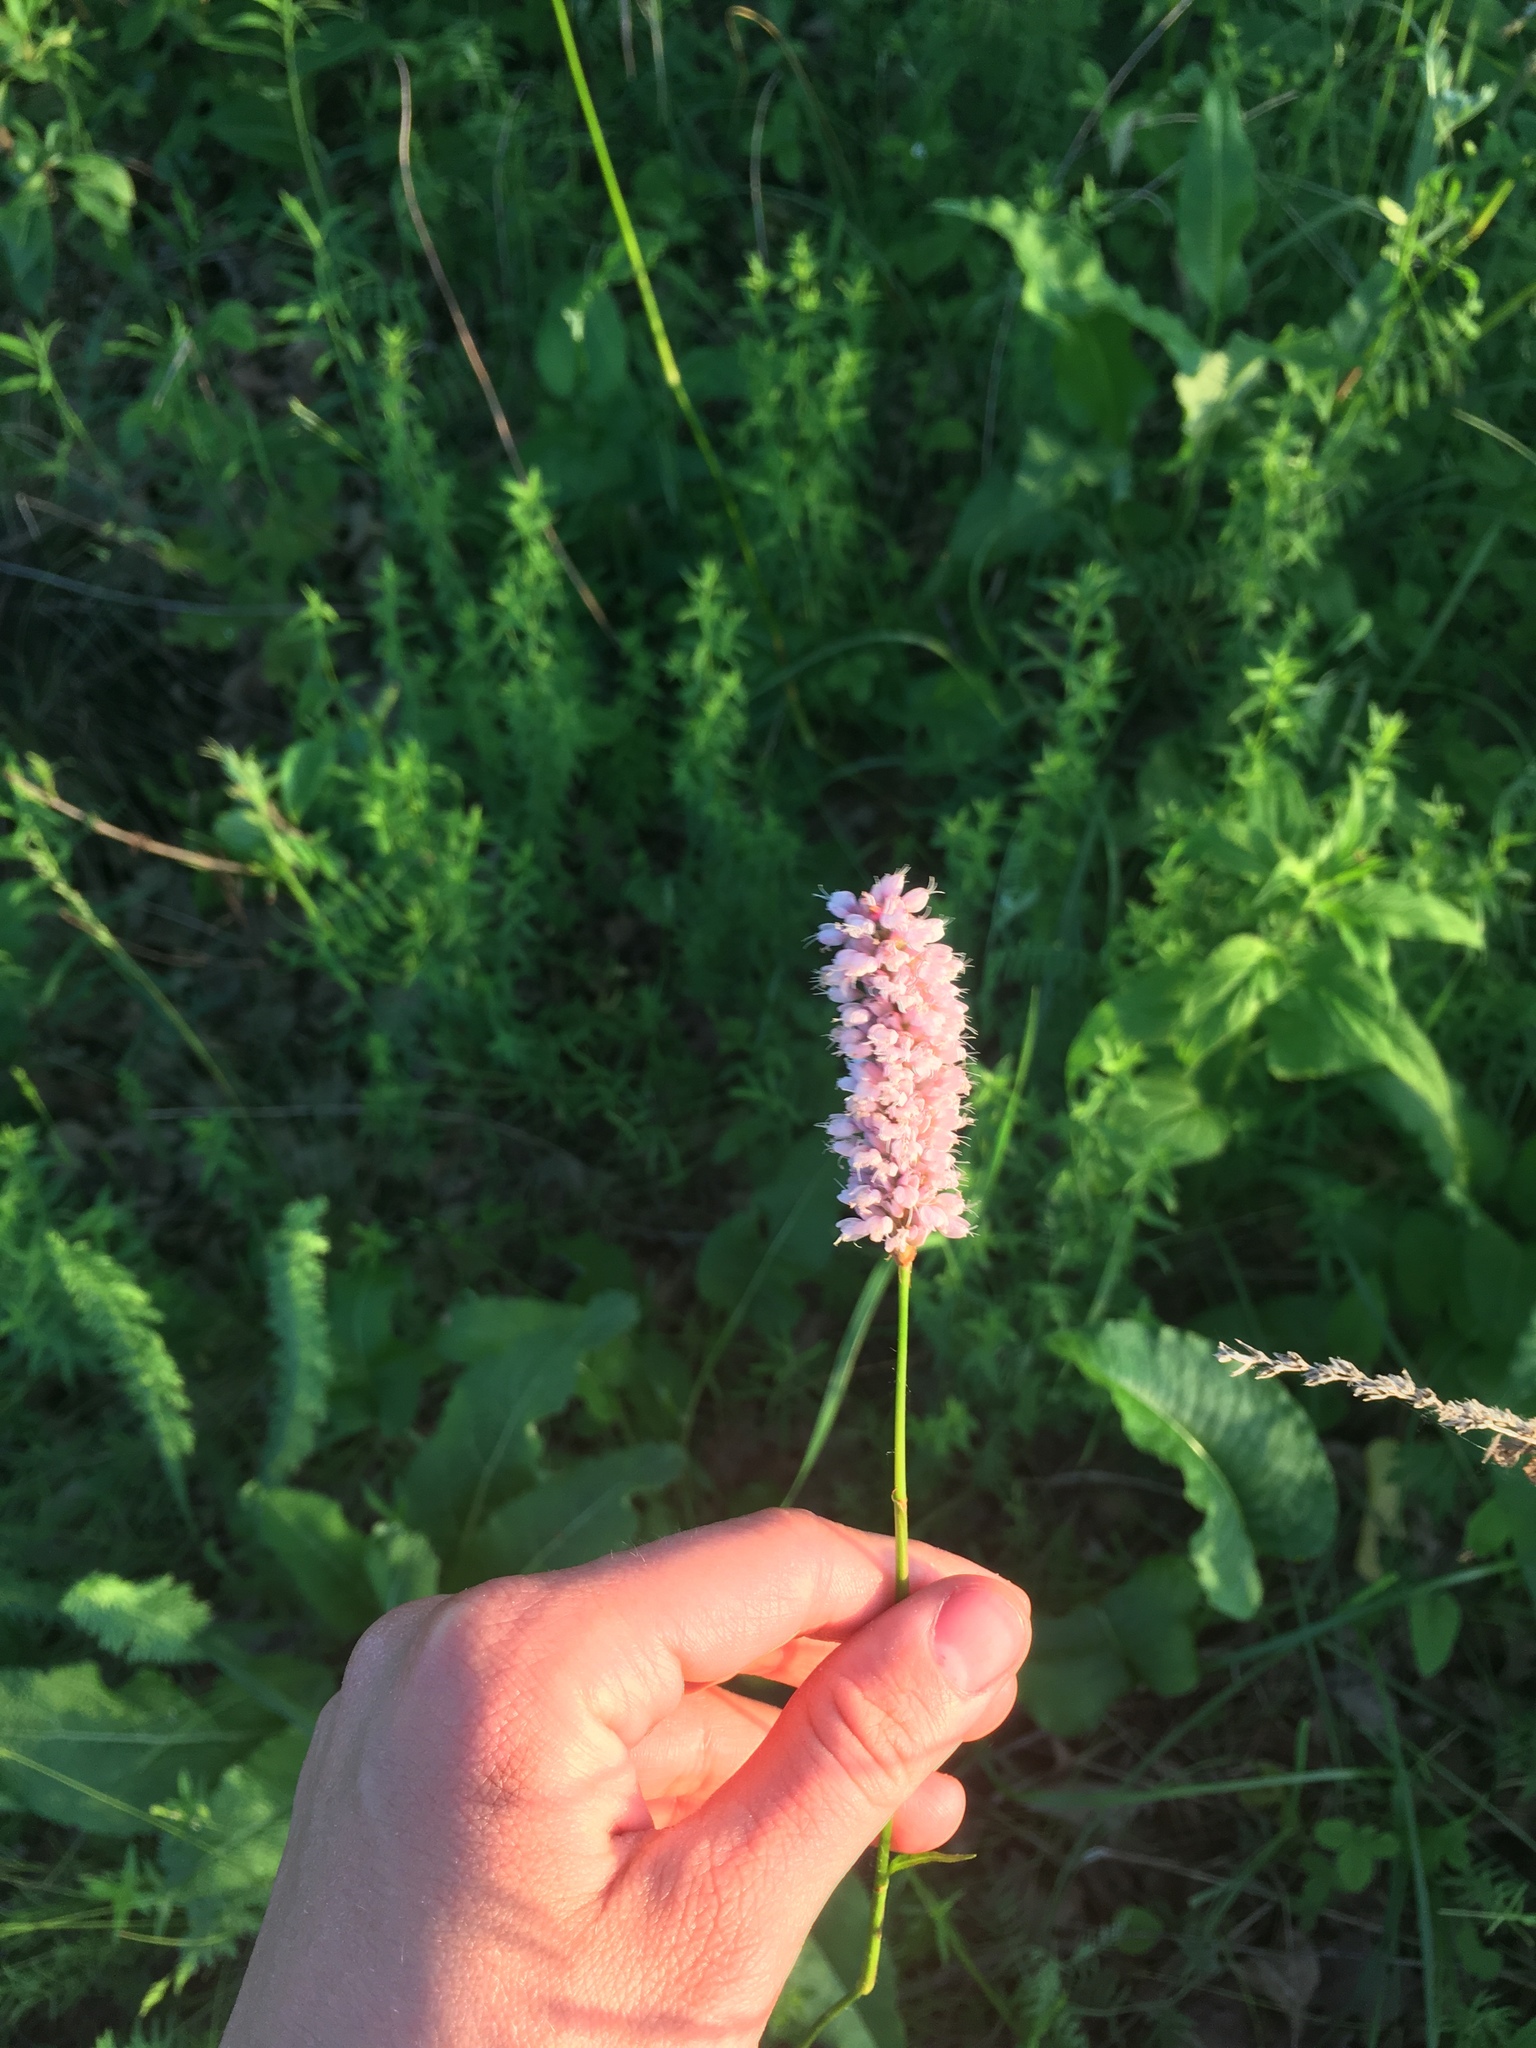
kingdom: Plantae
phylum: Tracheophyta
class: Magnoliopsida
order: Caryophyllales
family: Polygonaceae
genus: Bistorta
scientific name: Bistorta officinalis
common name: Common bistort
